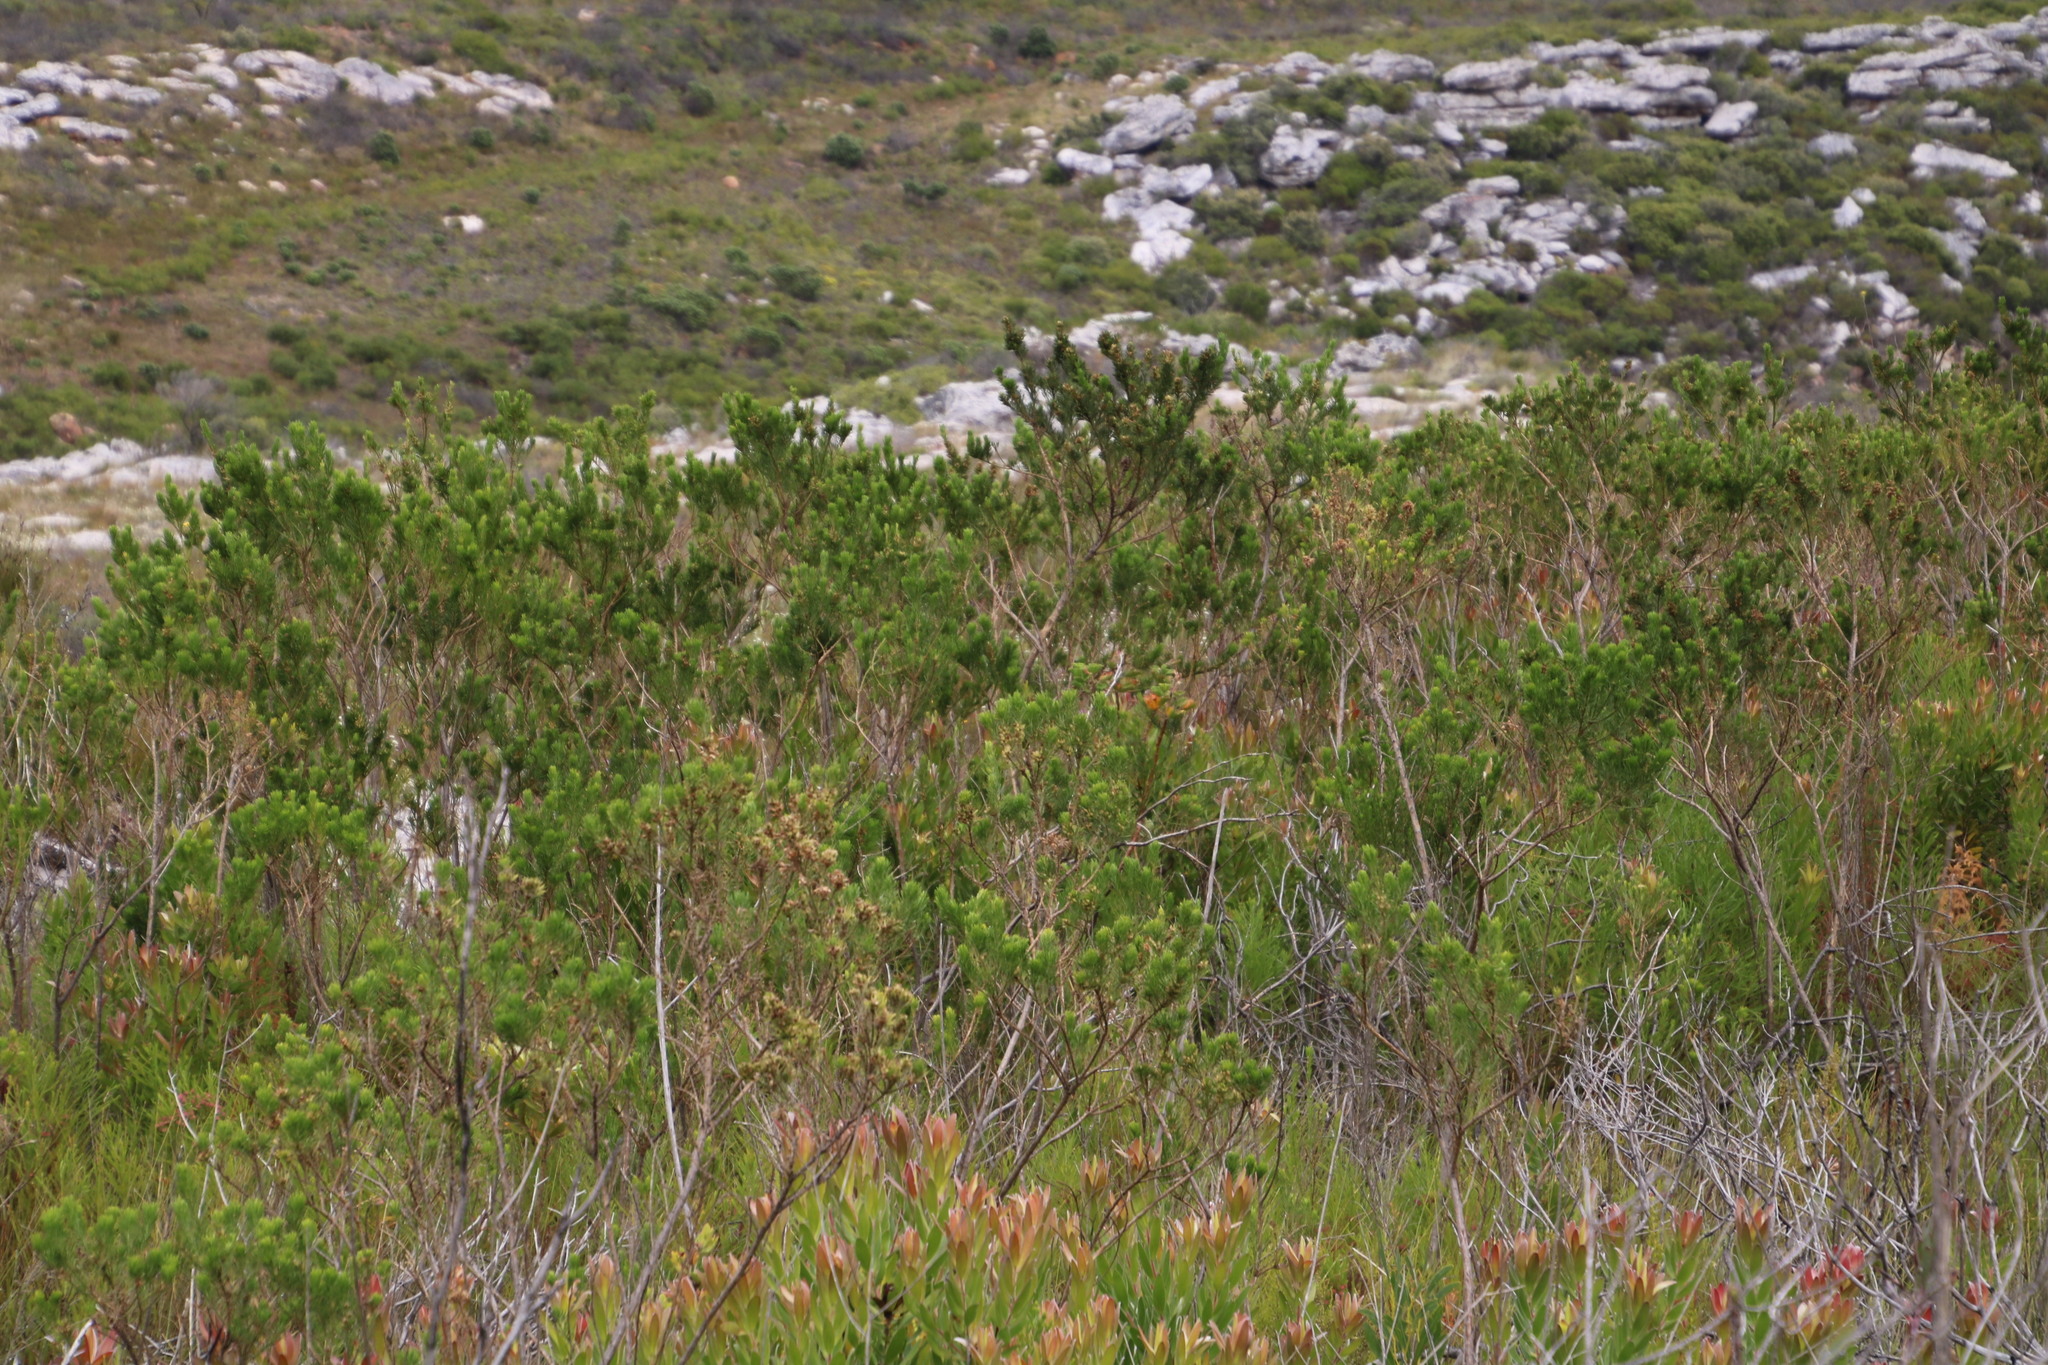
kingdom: Plantae
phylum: Tracheophyta
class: Magnoliopsida
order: Fabales
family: Fabaceae
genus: Psoralea
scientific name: Psoralea pinnata
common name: African scurfpea
